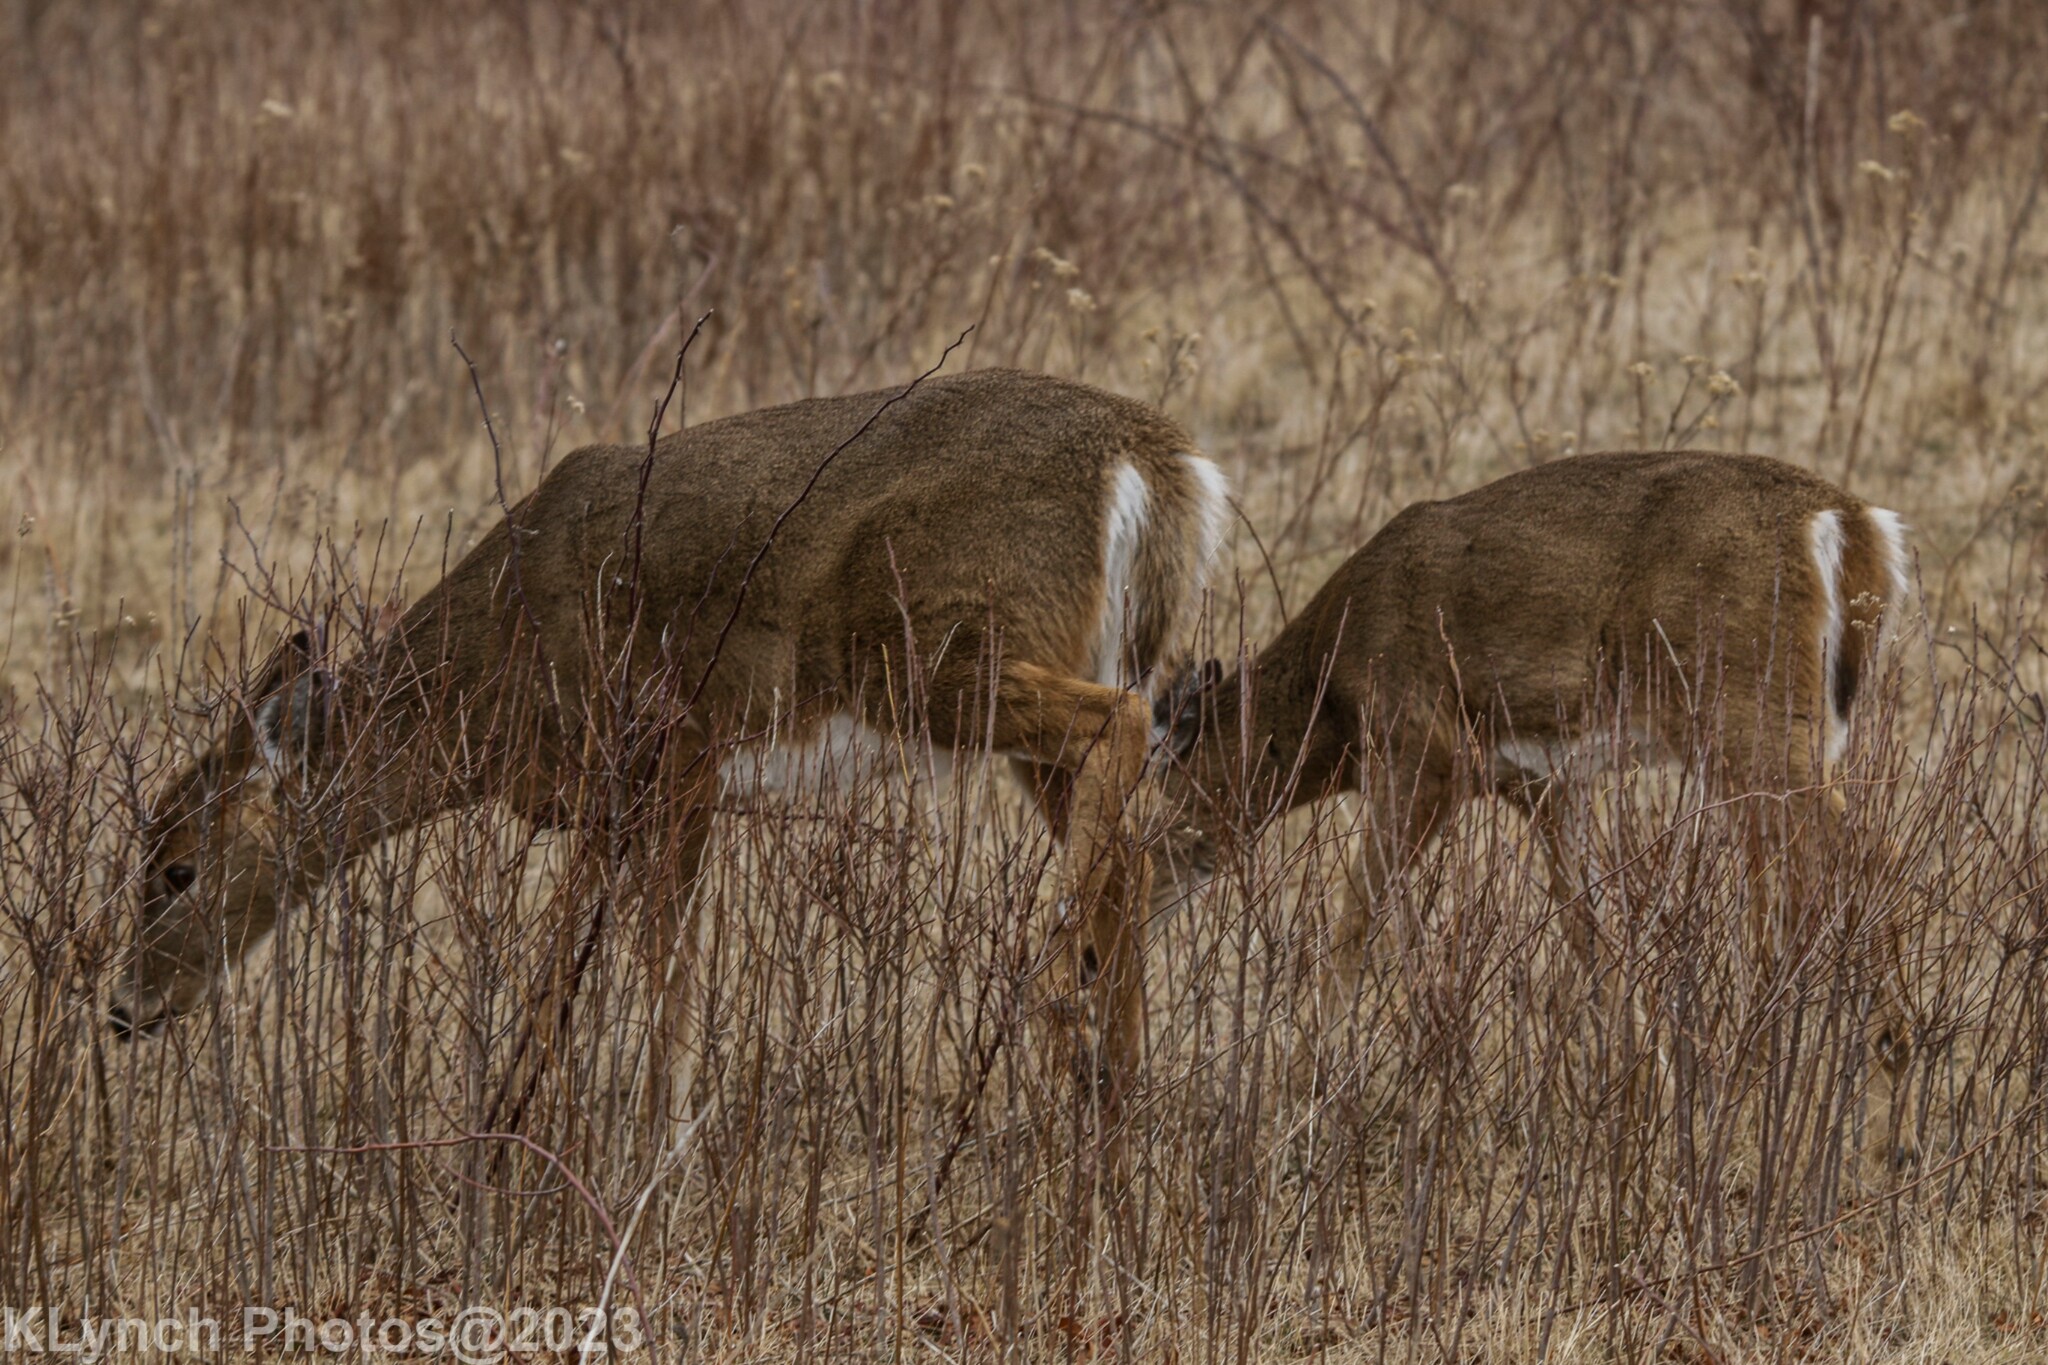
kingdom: Animalia
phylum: Chordata
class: Mammalia
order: Artiodactyla
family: Cervidae
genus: Odocoileus
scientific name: Odocoileus virginianus
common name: White-tailed deer
